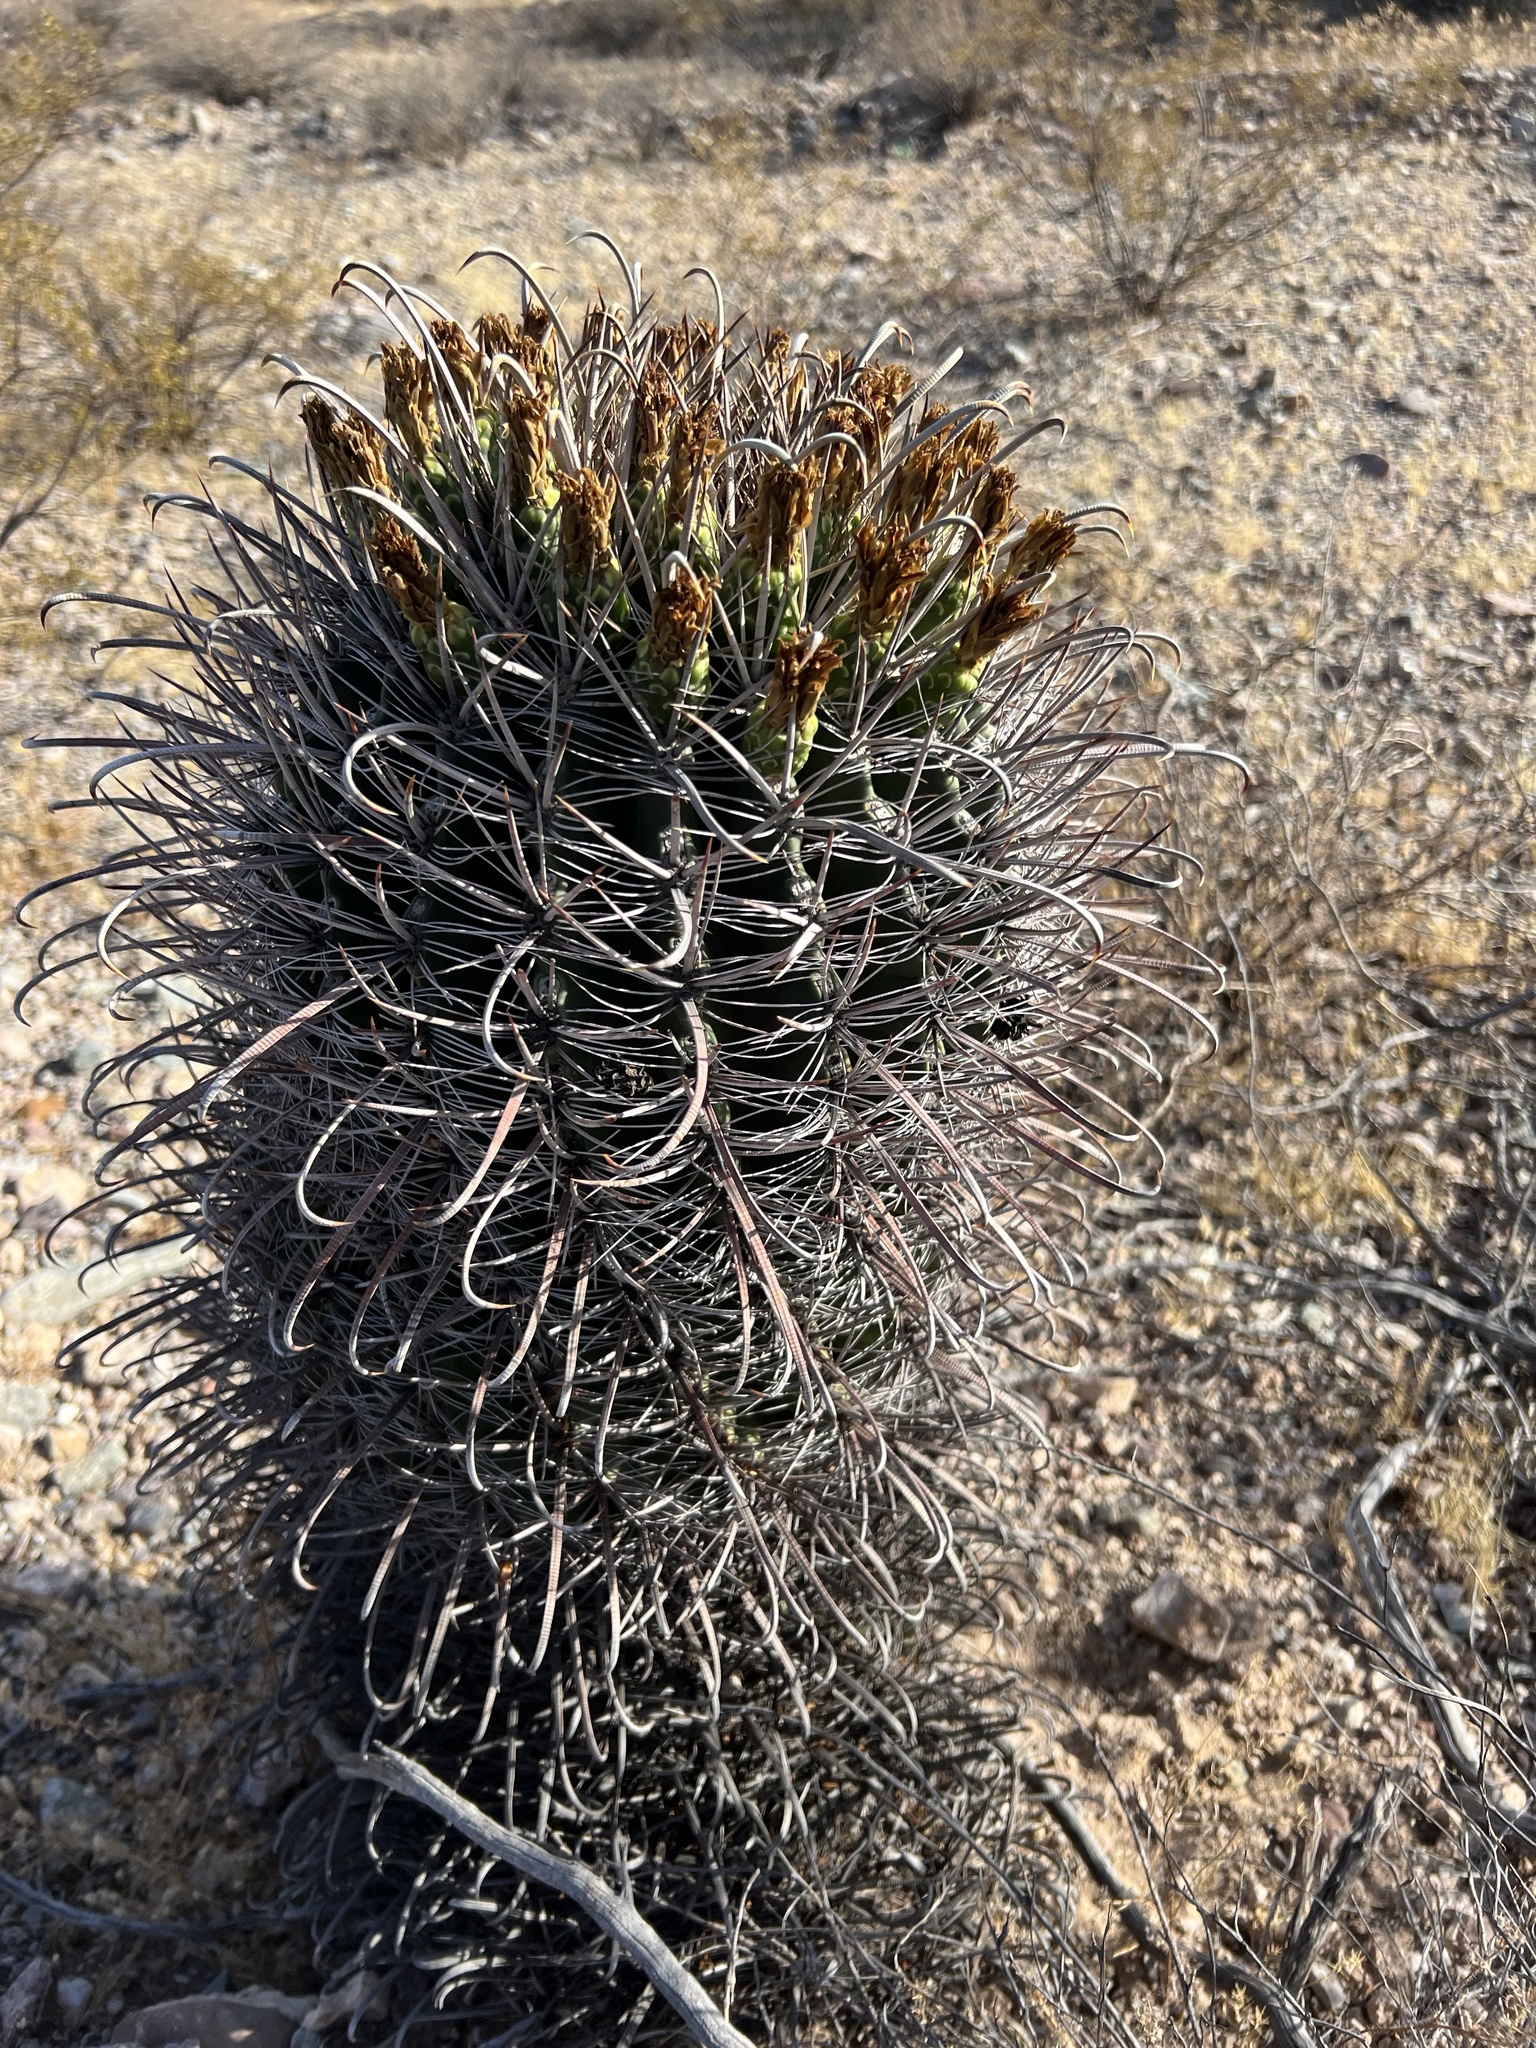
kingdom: Plantae
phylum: Tracheophyta
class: Magnoliopsida
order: Caryophyllales
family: Cactaceae
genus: Ferocactus
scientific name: Ferocactus cylindraceus
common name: California barrel cactus
